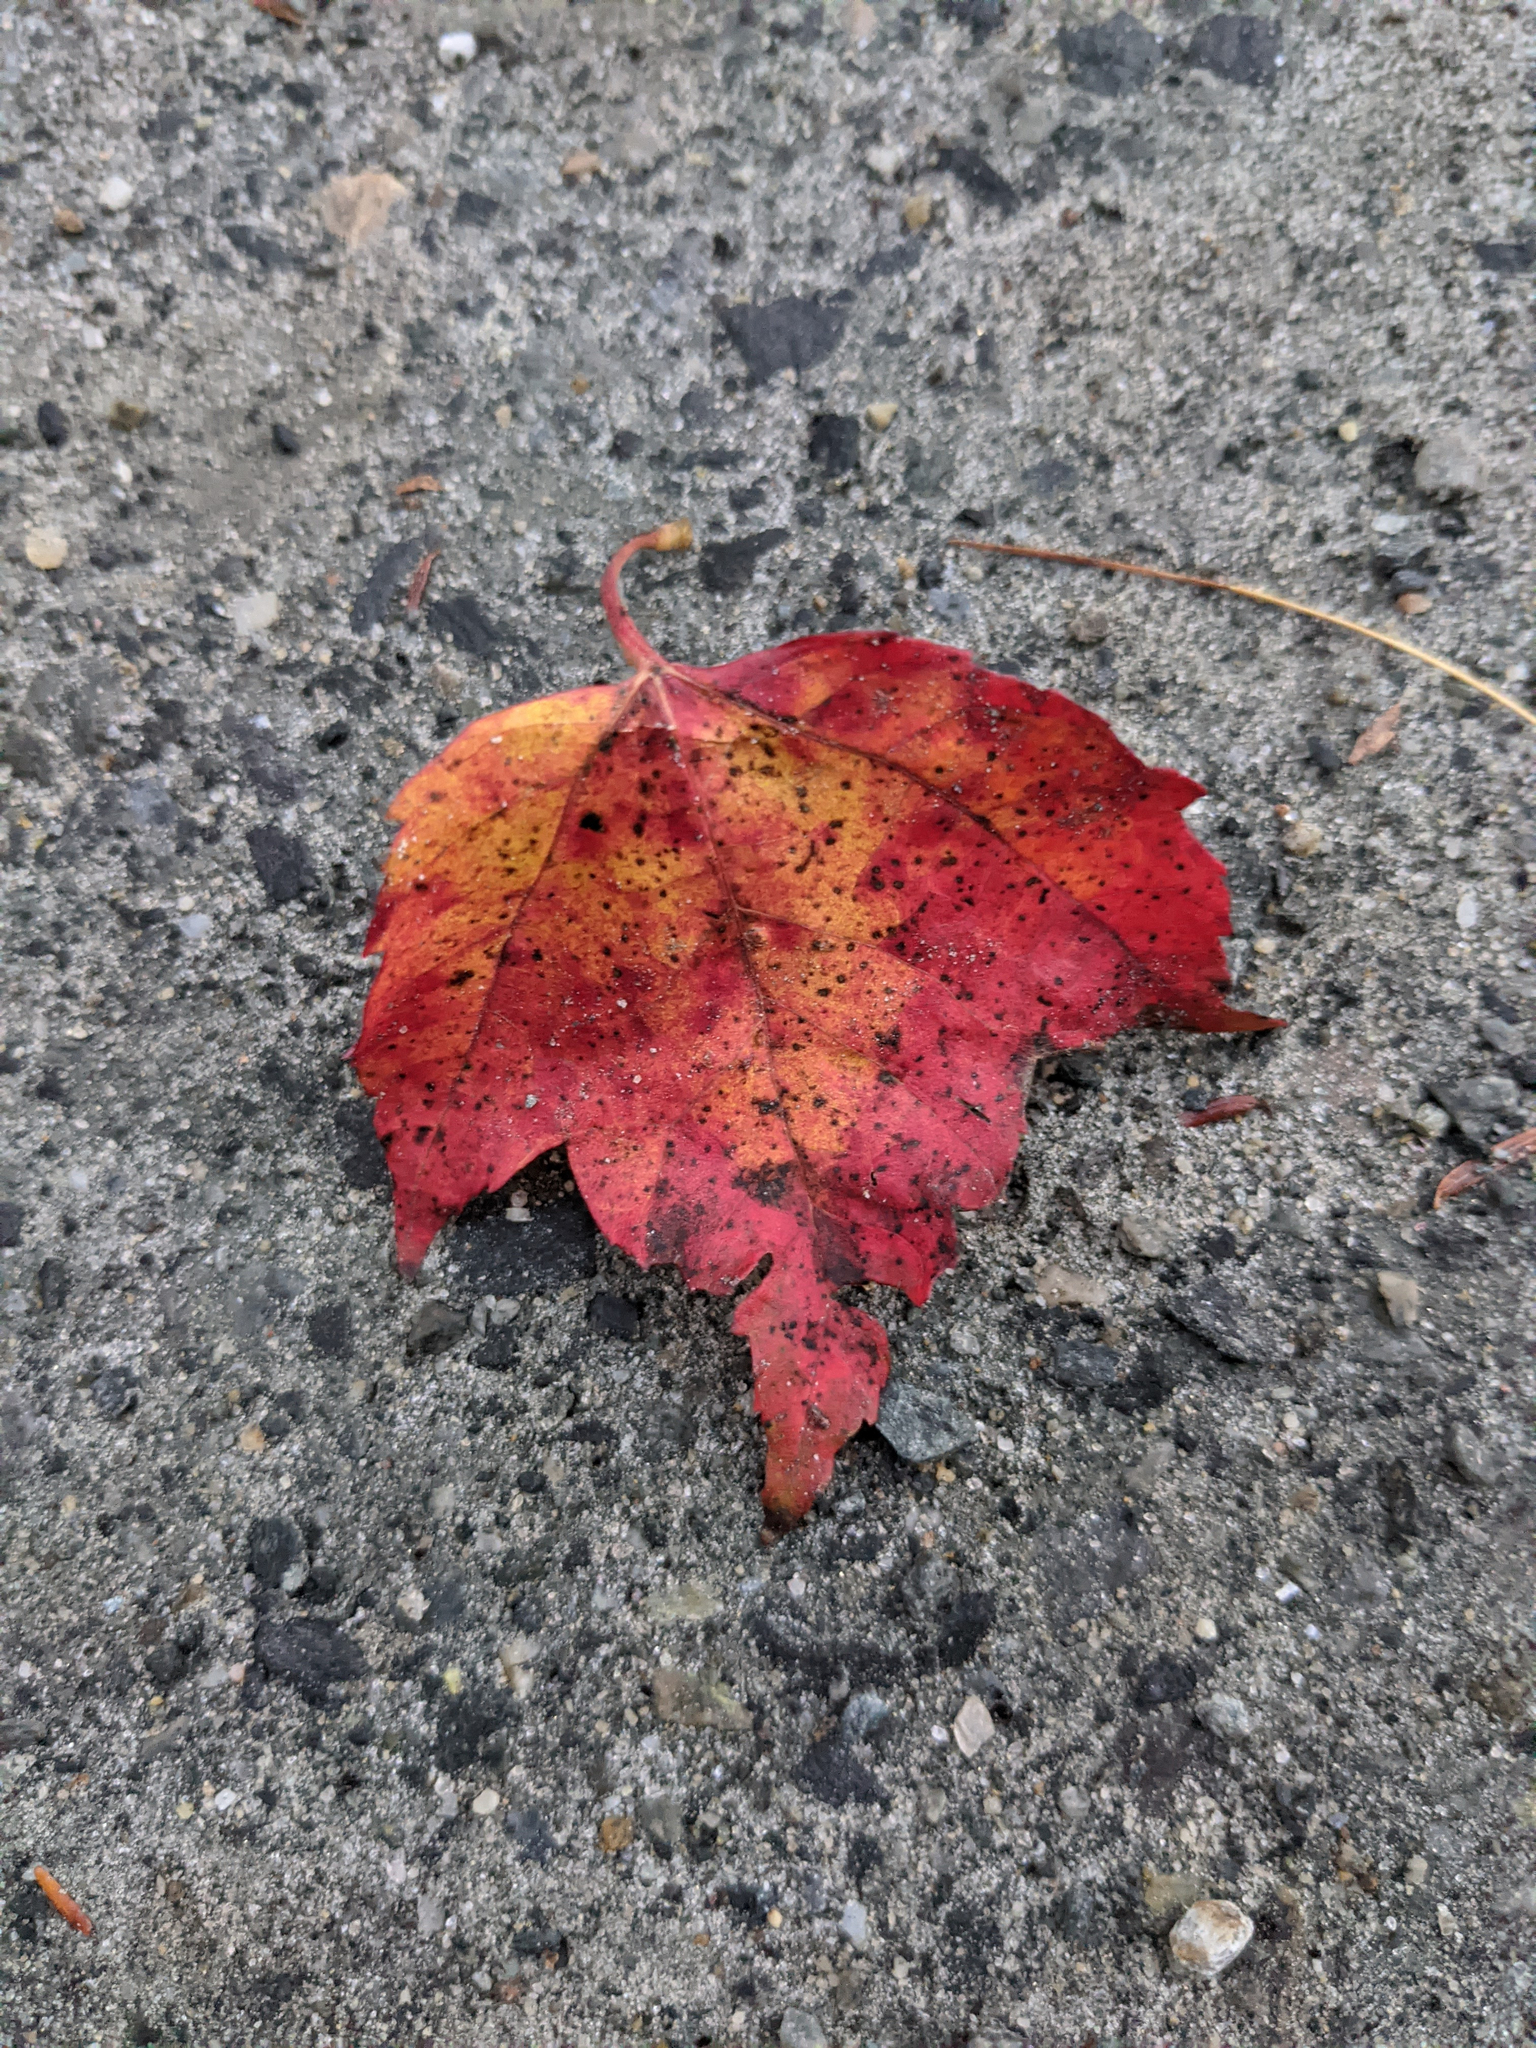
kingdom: Plantae
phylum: Tracheophyta
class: Magnoliopsida
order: Sapindales
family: Sapindaceae
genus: Acer
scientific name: Acer rubrum
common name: Red maple
